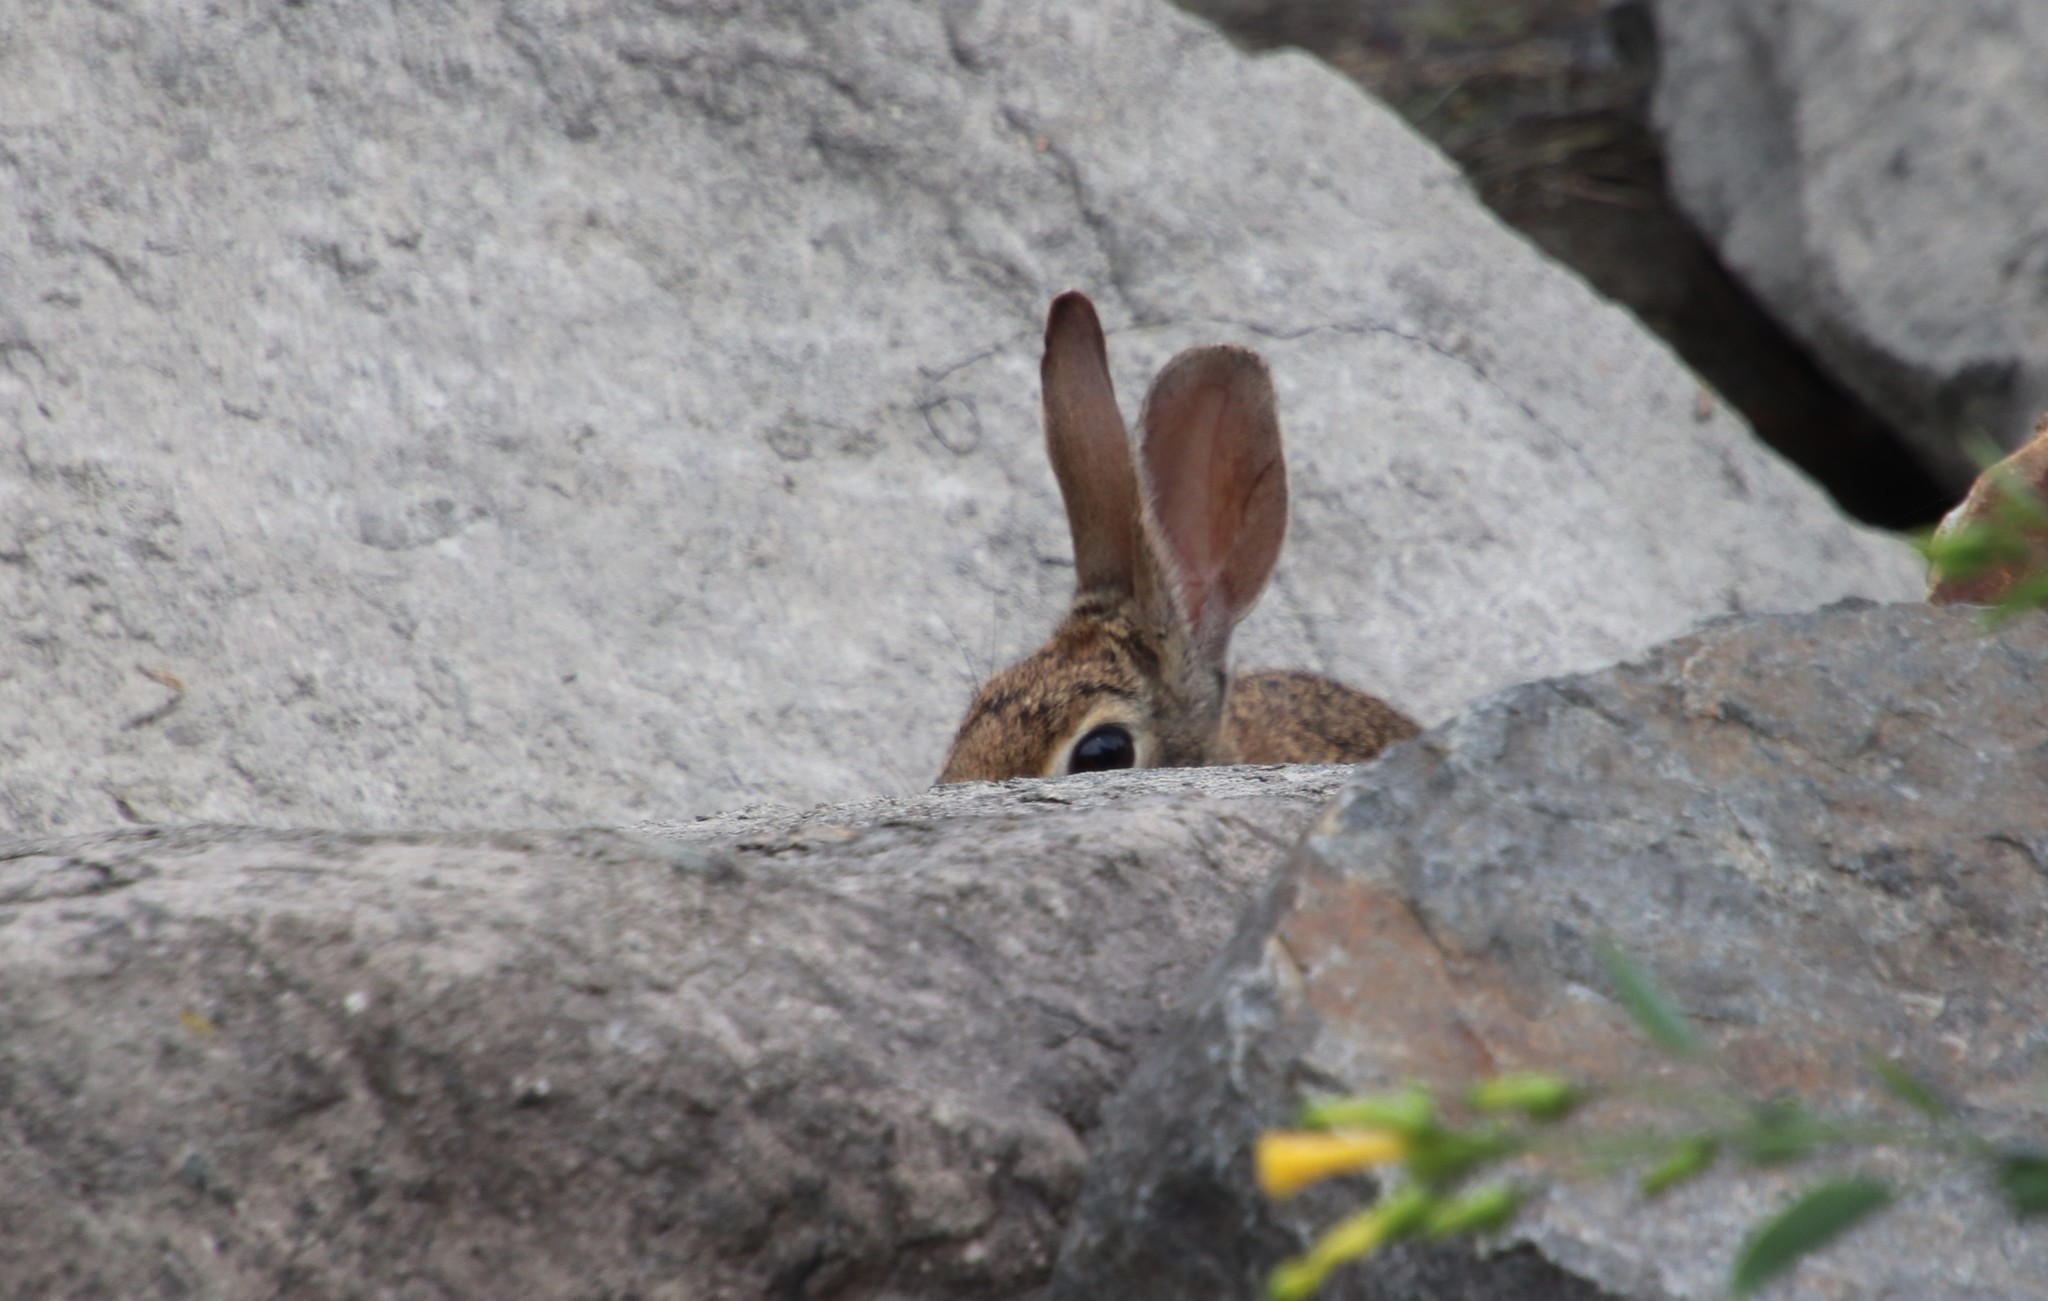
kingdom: Animalia
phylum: Chordata
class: Mammalia
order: Lagomorpha
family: Leporidae
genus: Sylvilagus
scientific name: Sylvilagus audubonii
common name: Desert cottontail
